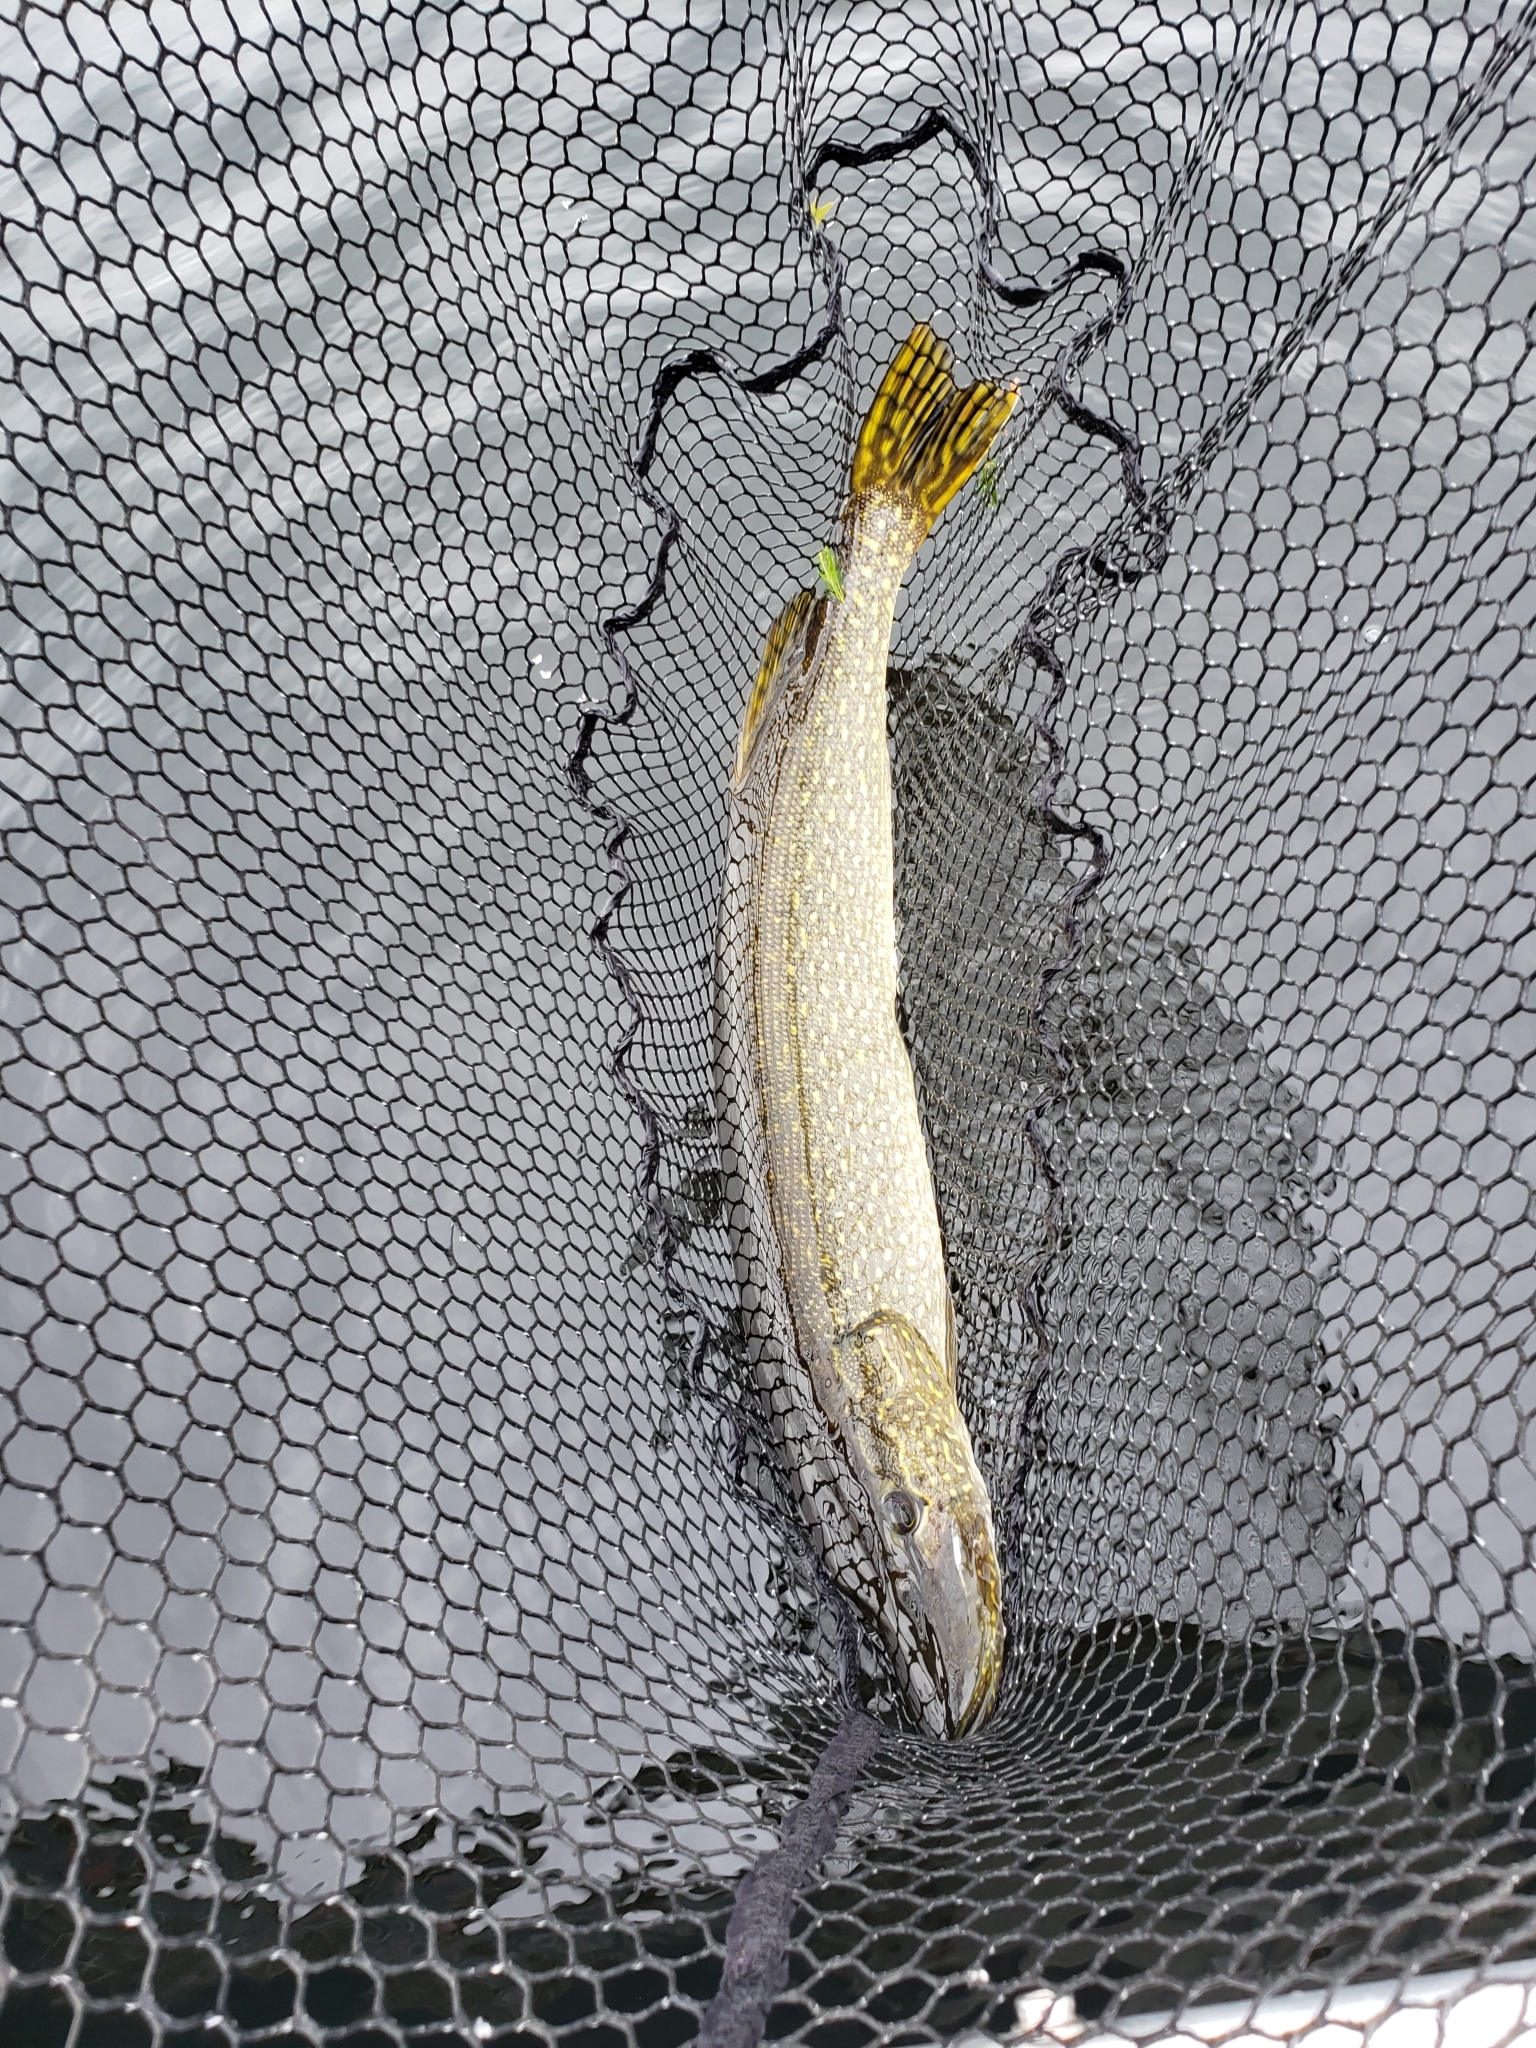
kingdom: Animalia
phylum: Chordata
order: Esociformes
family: Esocidae
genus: Esox
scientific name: Esox lucius
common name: Northern pike
